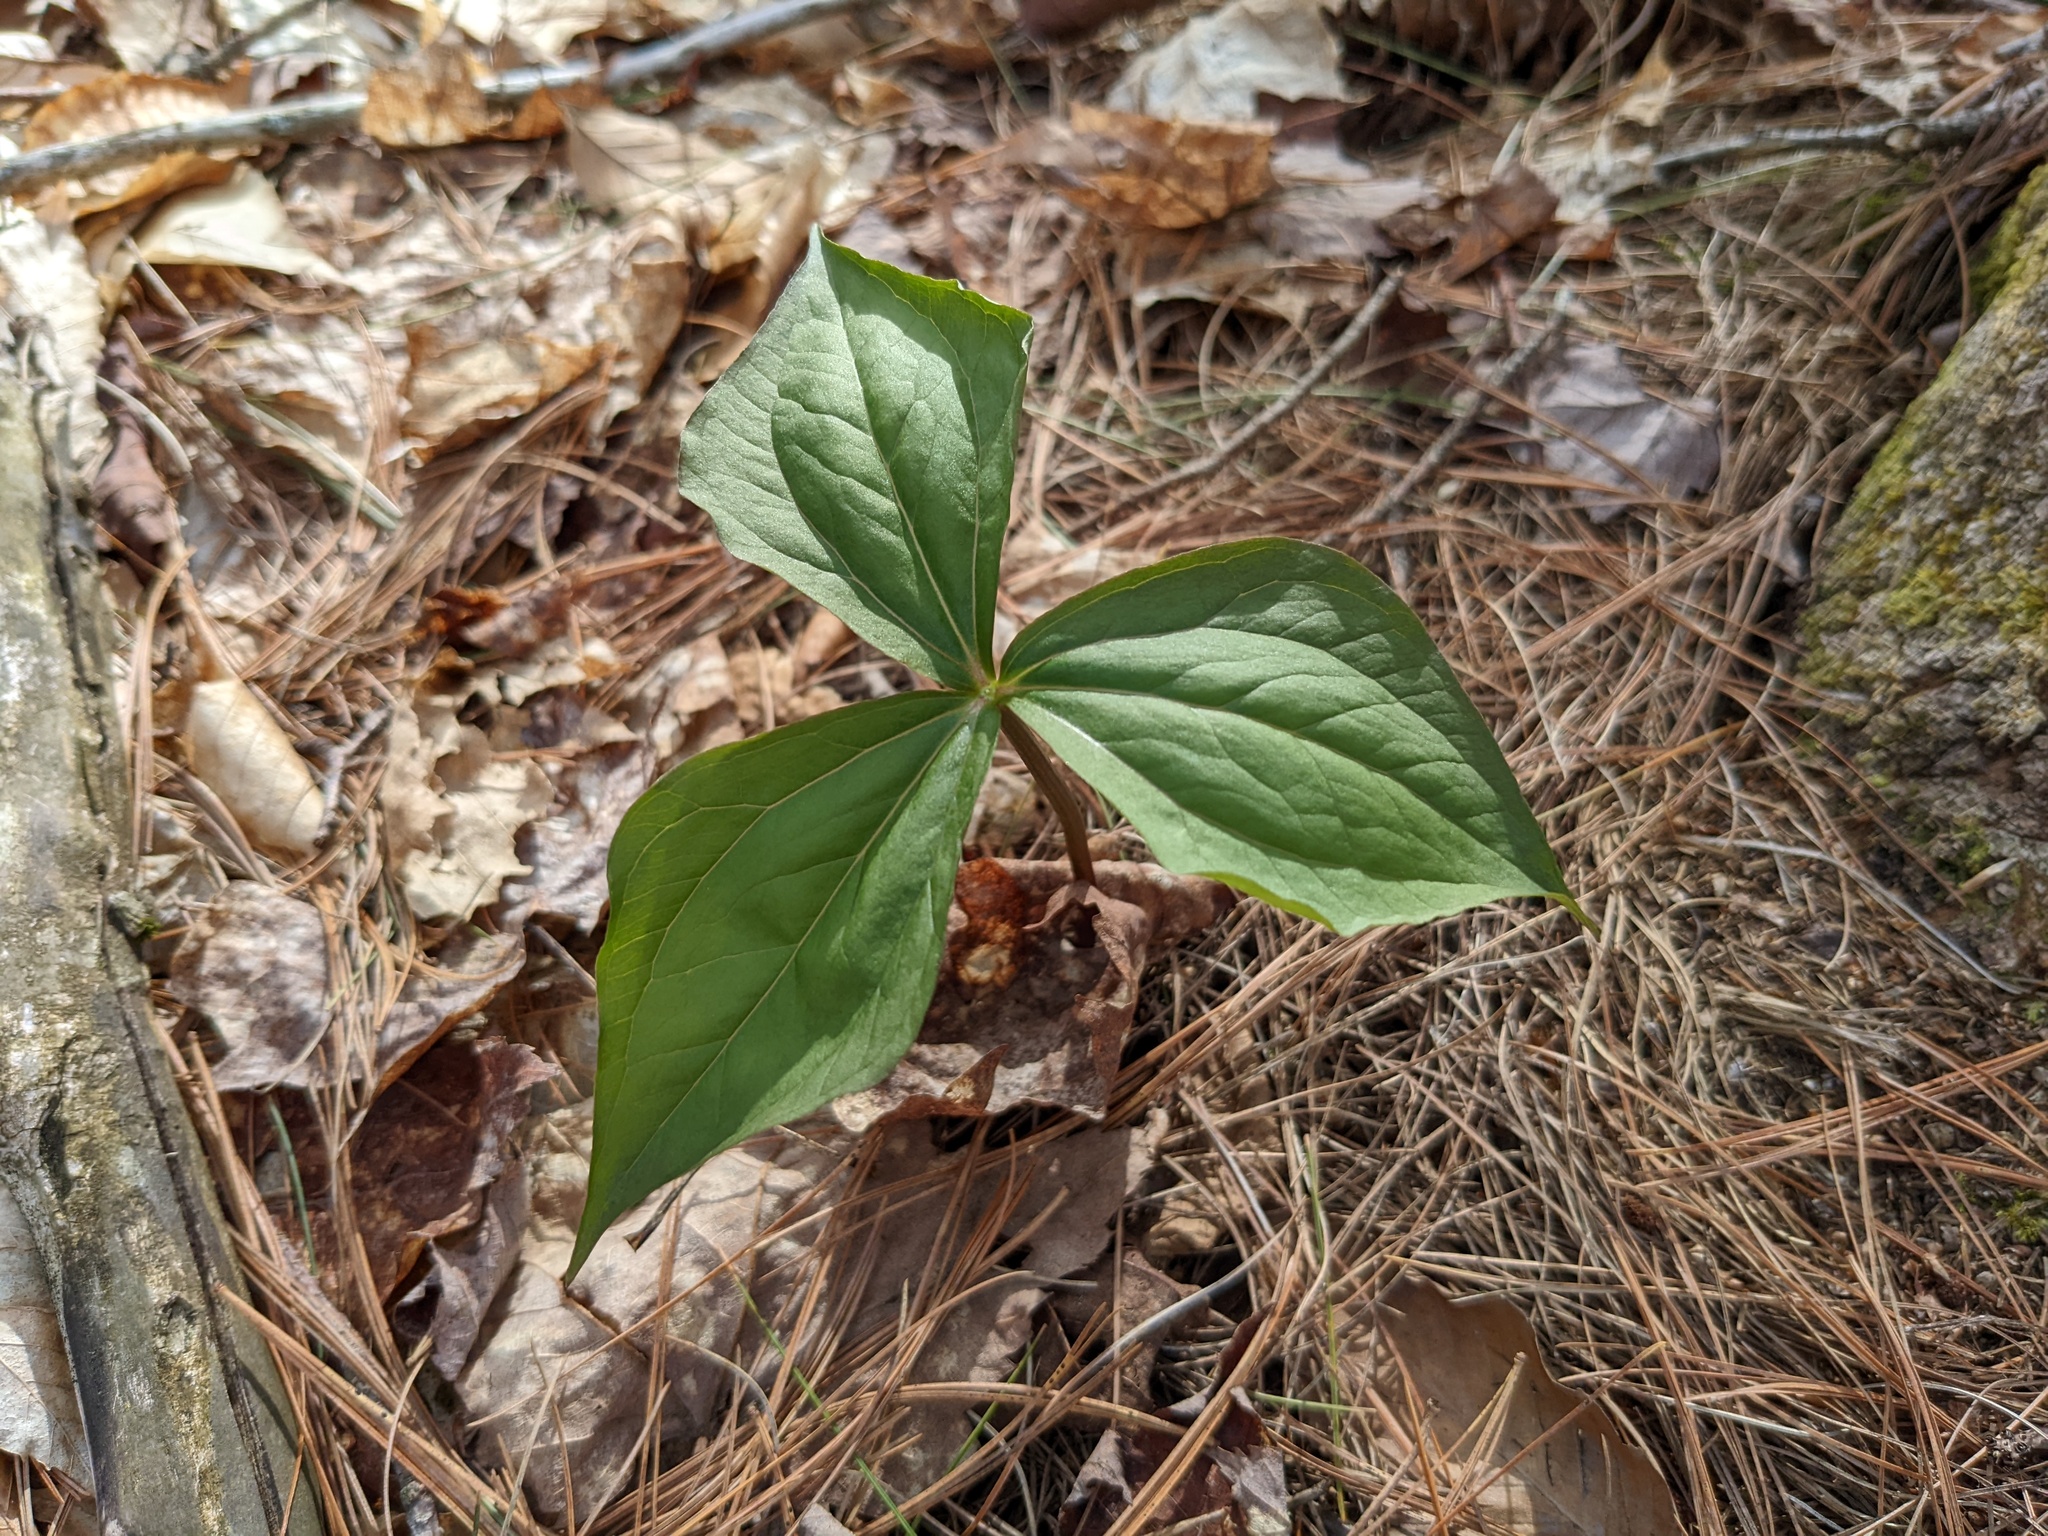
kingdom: Plantae
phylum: Tracheophyta
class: Liliopsida
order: Liliales
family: Melanthiaceae
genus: Trillium
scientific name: Trillium erectum
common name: Purple trillium
